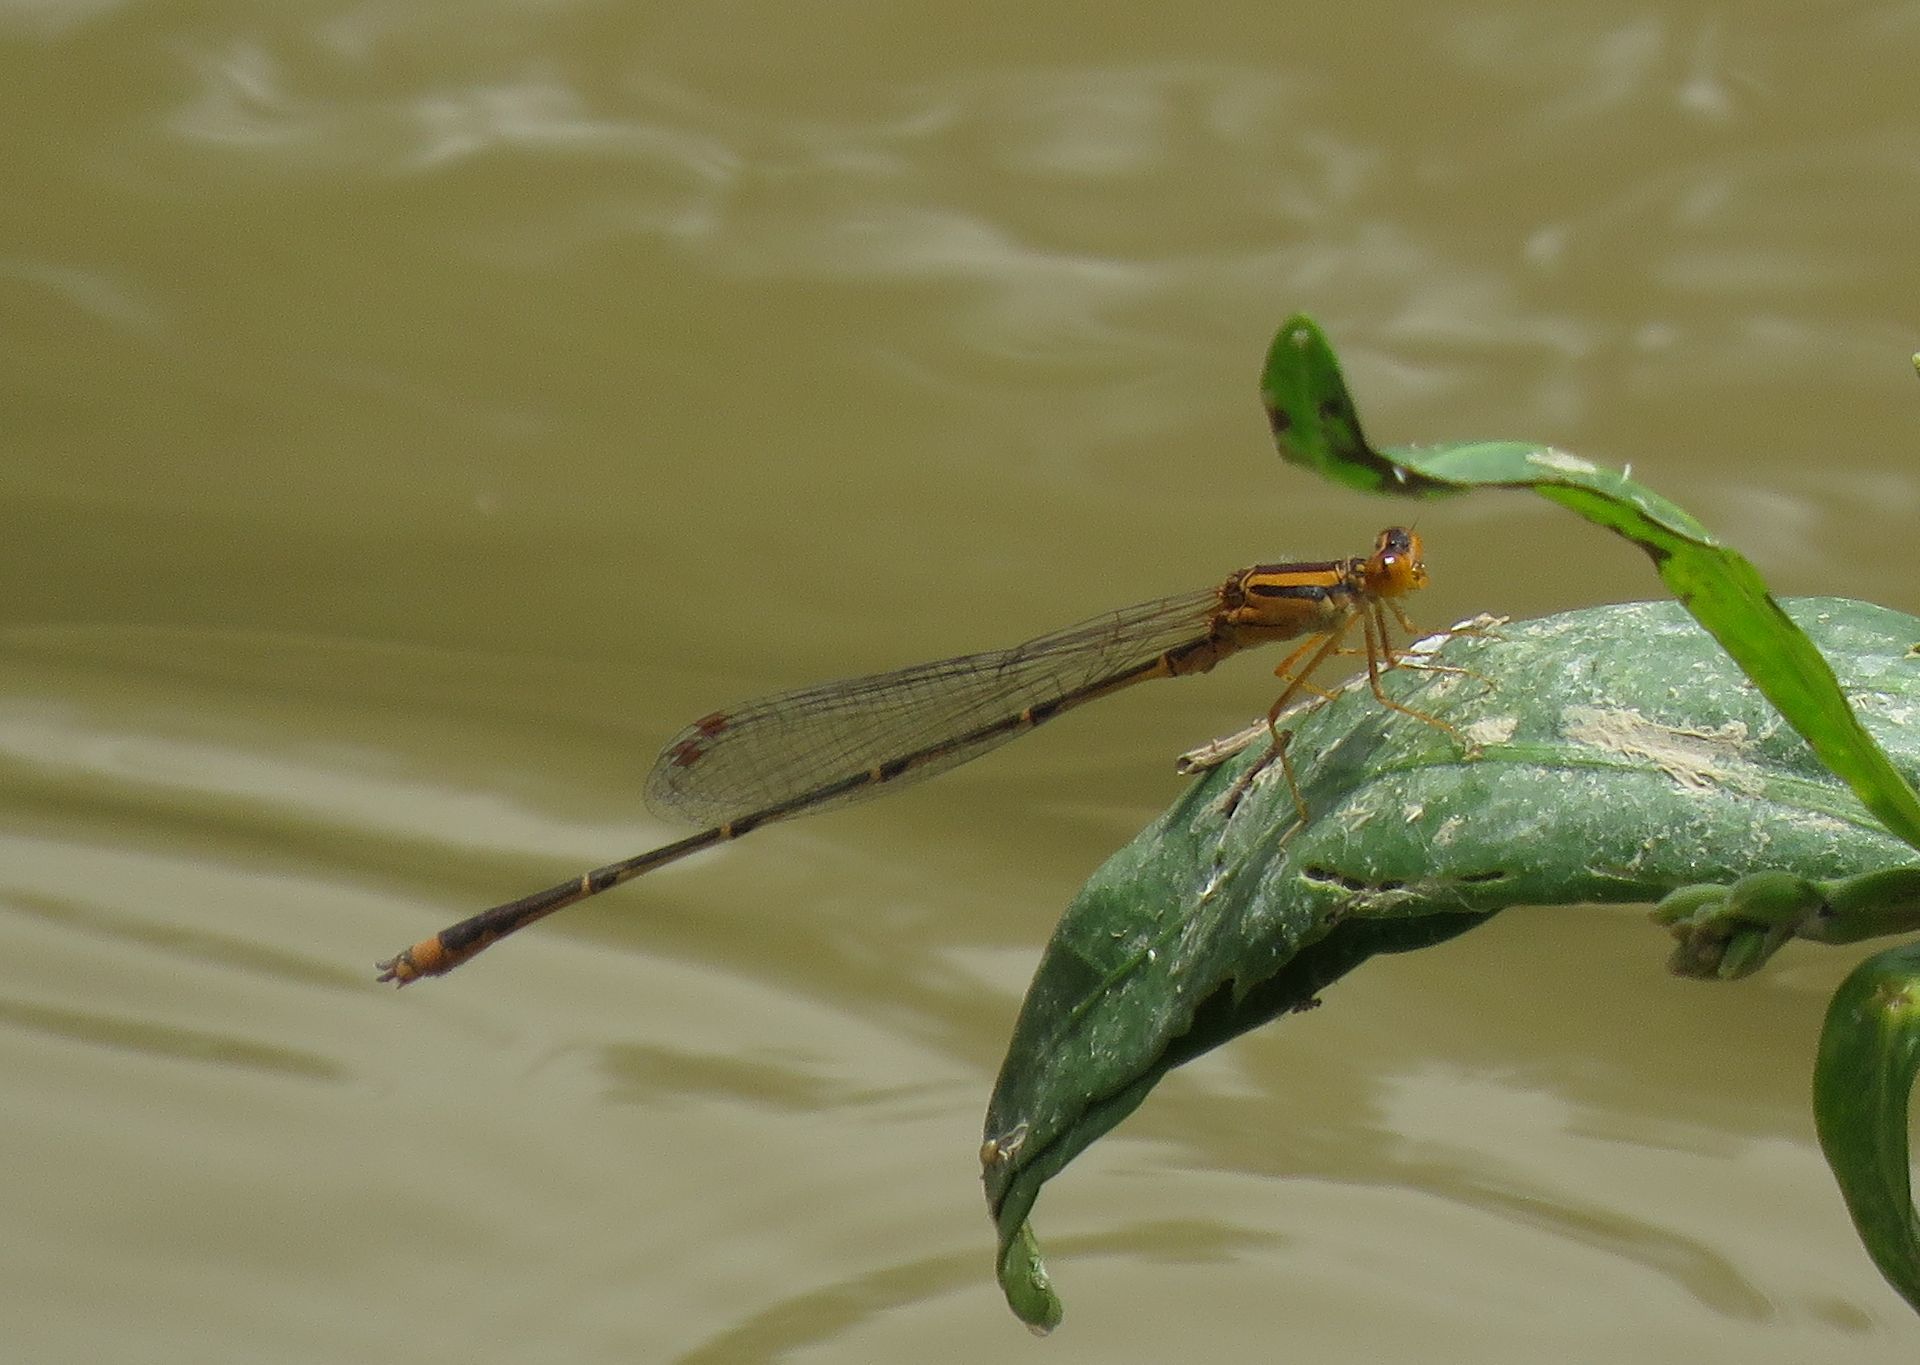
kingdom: Animalia
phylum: Arthropoda
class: Insecta
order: Odonata
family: Coenagrionidae
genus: Enallagma
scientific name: Enallagma signatum
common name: Orange bluet
